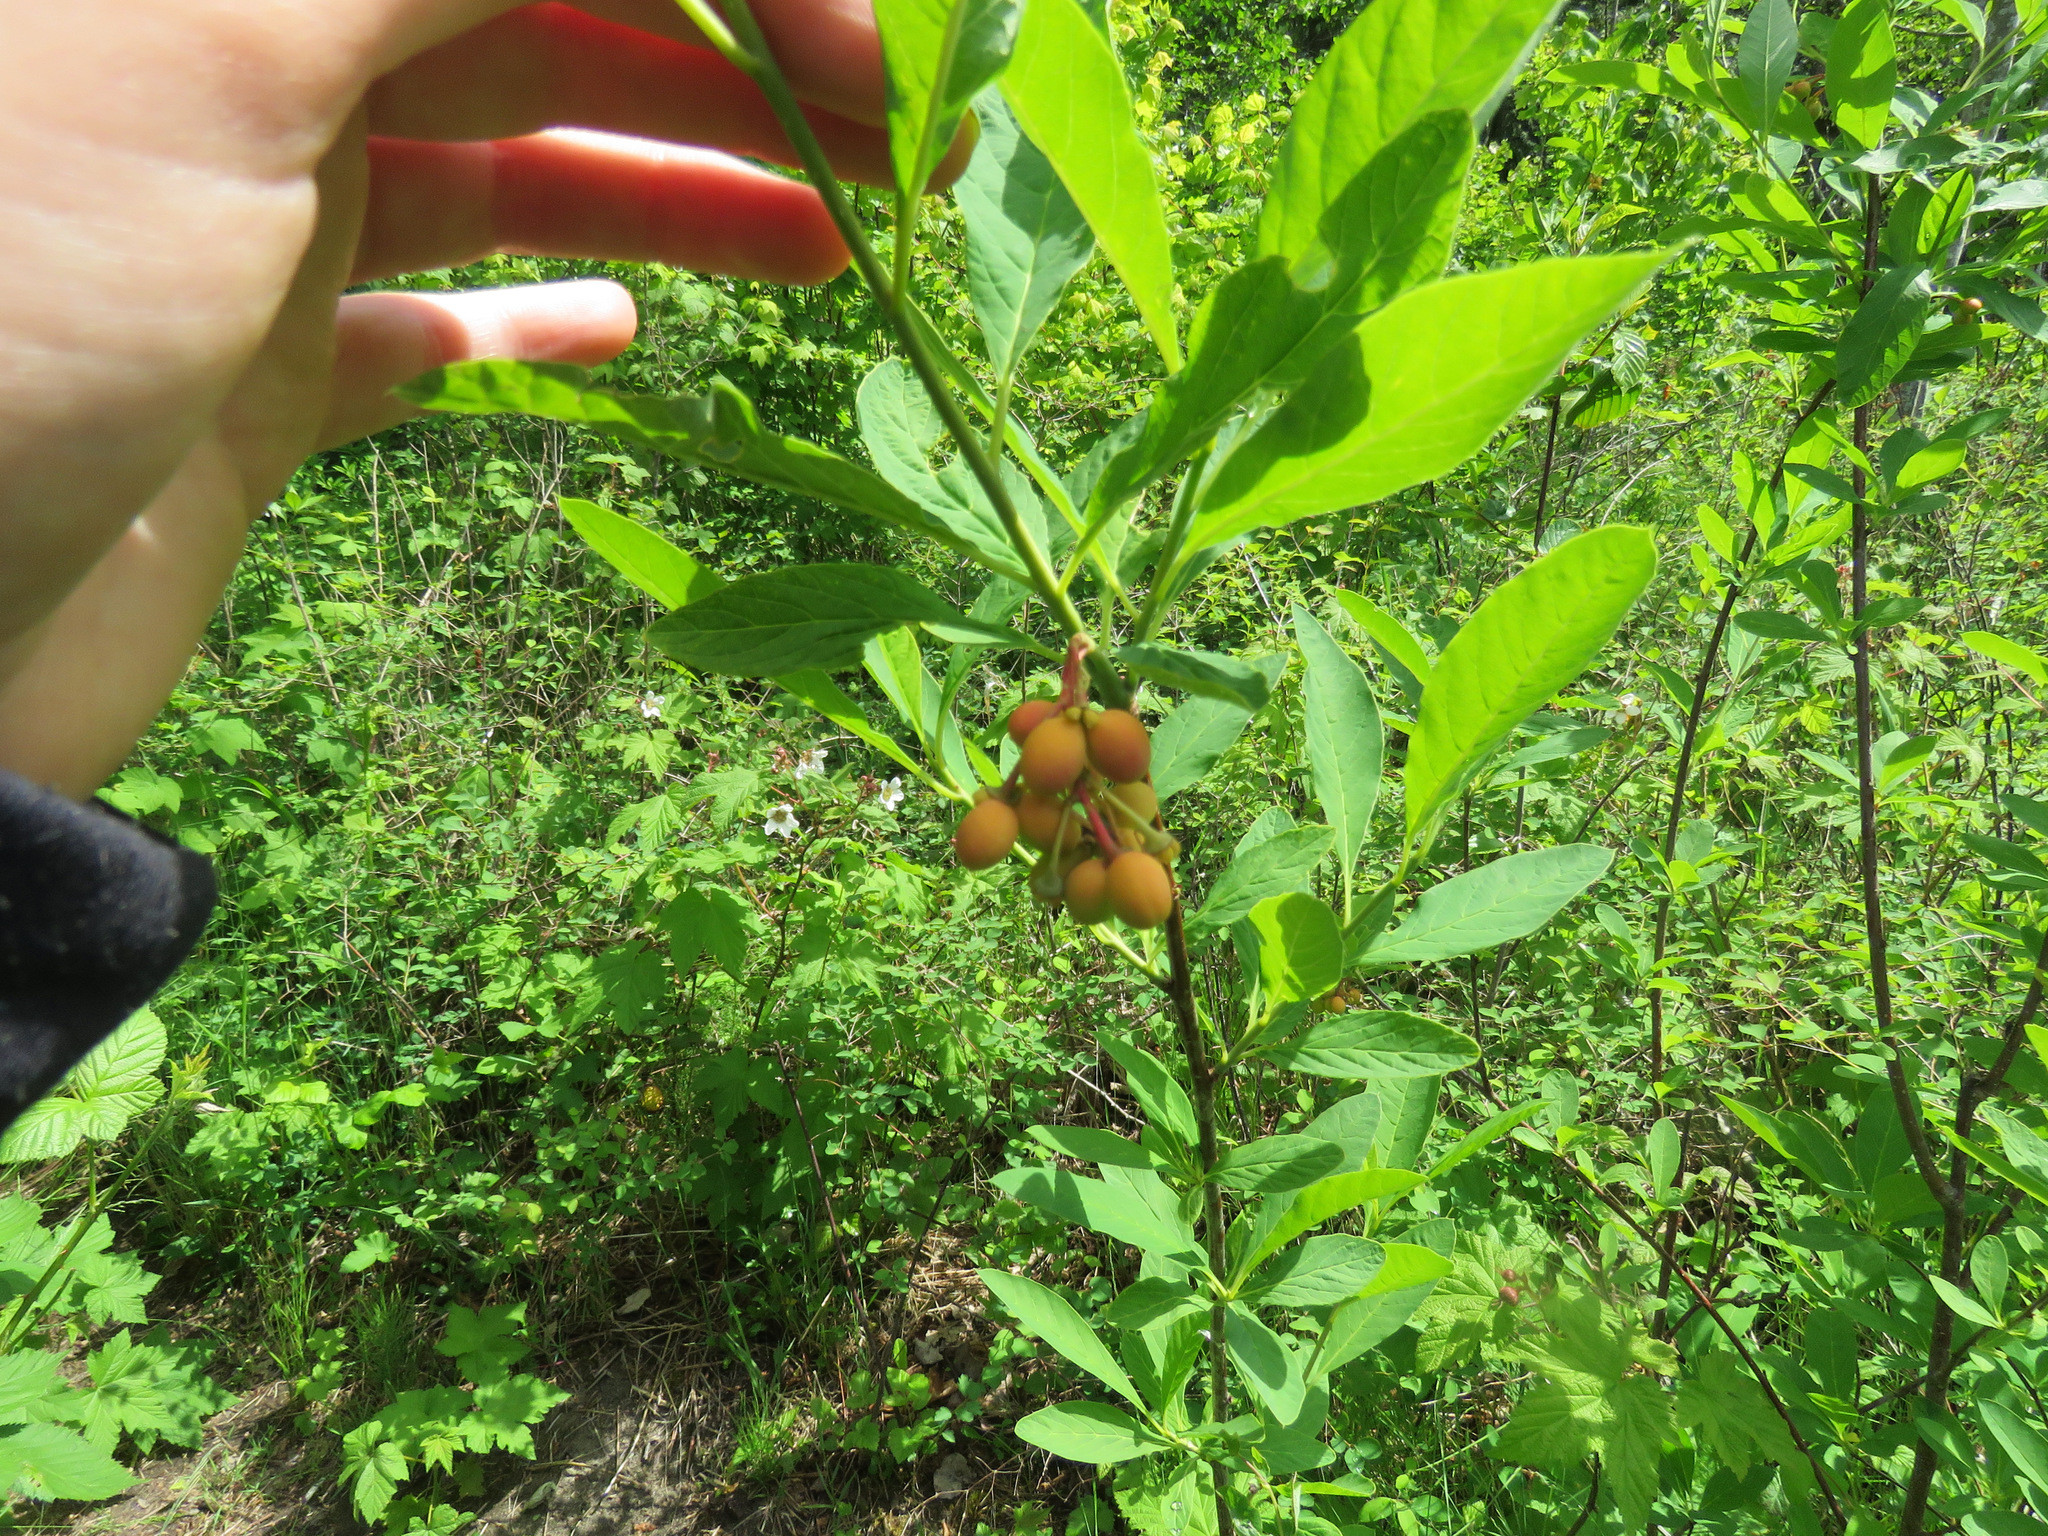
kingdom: Plantae
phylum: Tracheophyta
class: Magnoliopsida
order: Rosales
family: Rosaceae
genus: Oemleria
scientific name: Oemleria cerasiformis
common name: Osoberry
